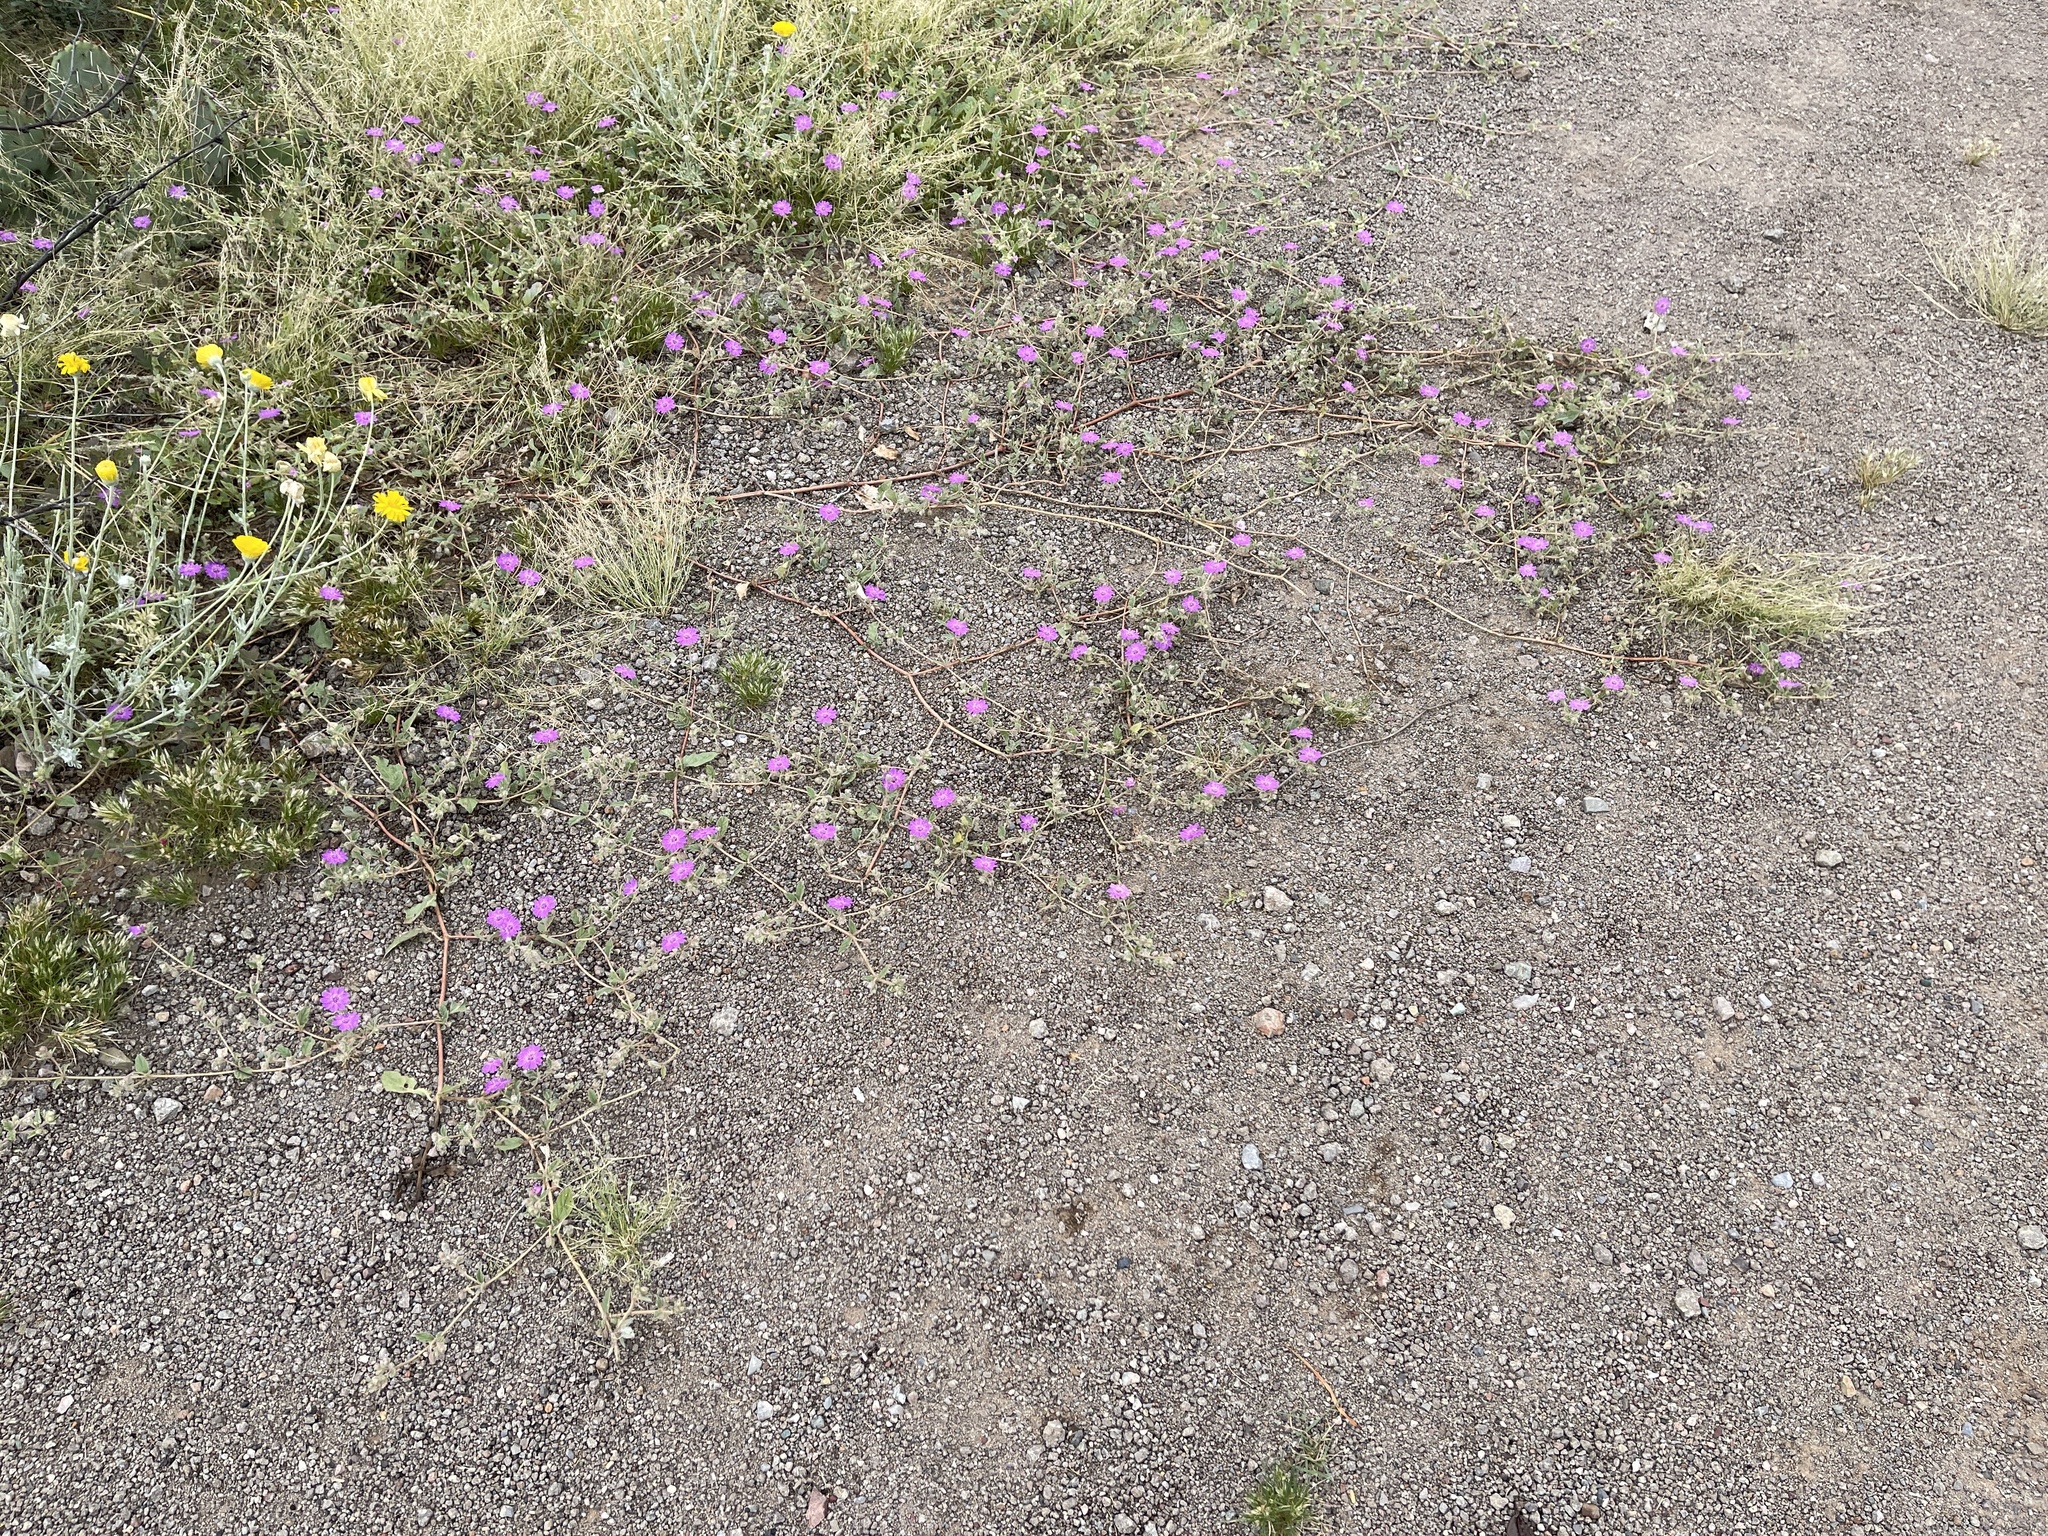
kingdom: Plantae
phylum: Tracheophyta
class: Magnoliopsida
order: Caryophyllales
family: Nyctaginaceae
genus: Allionia
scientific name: Allionia incarnata
